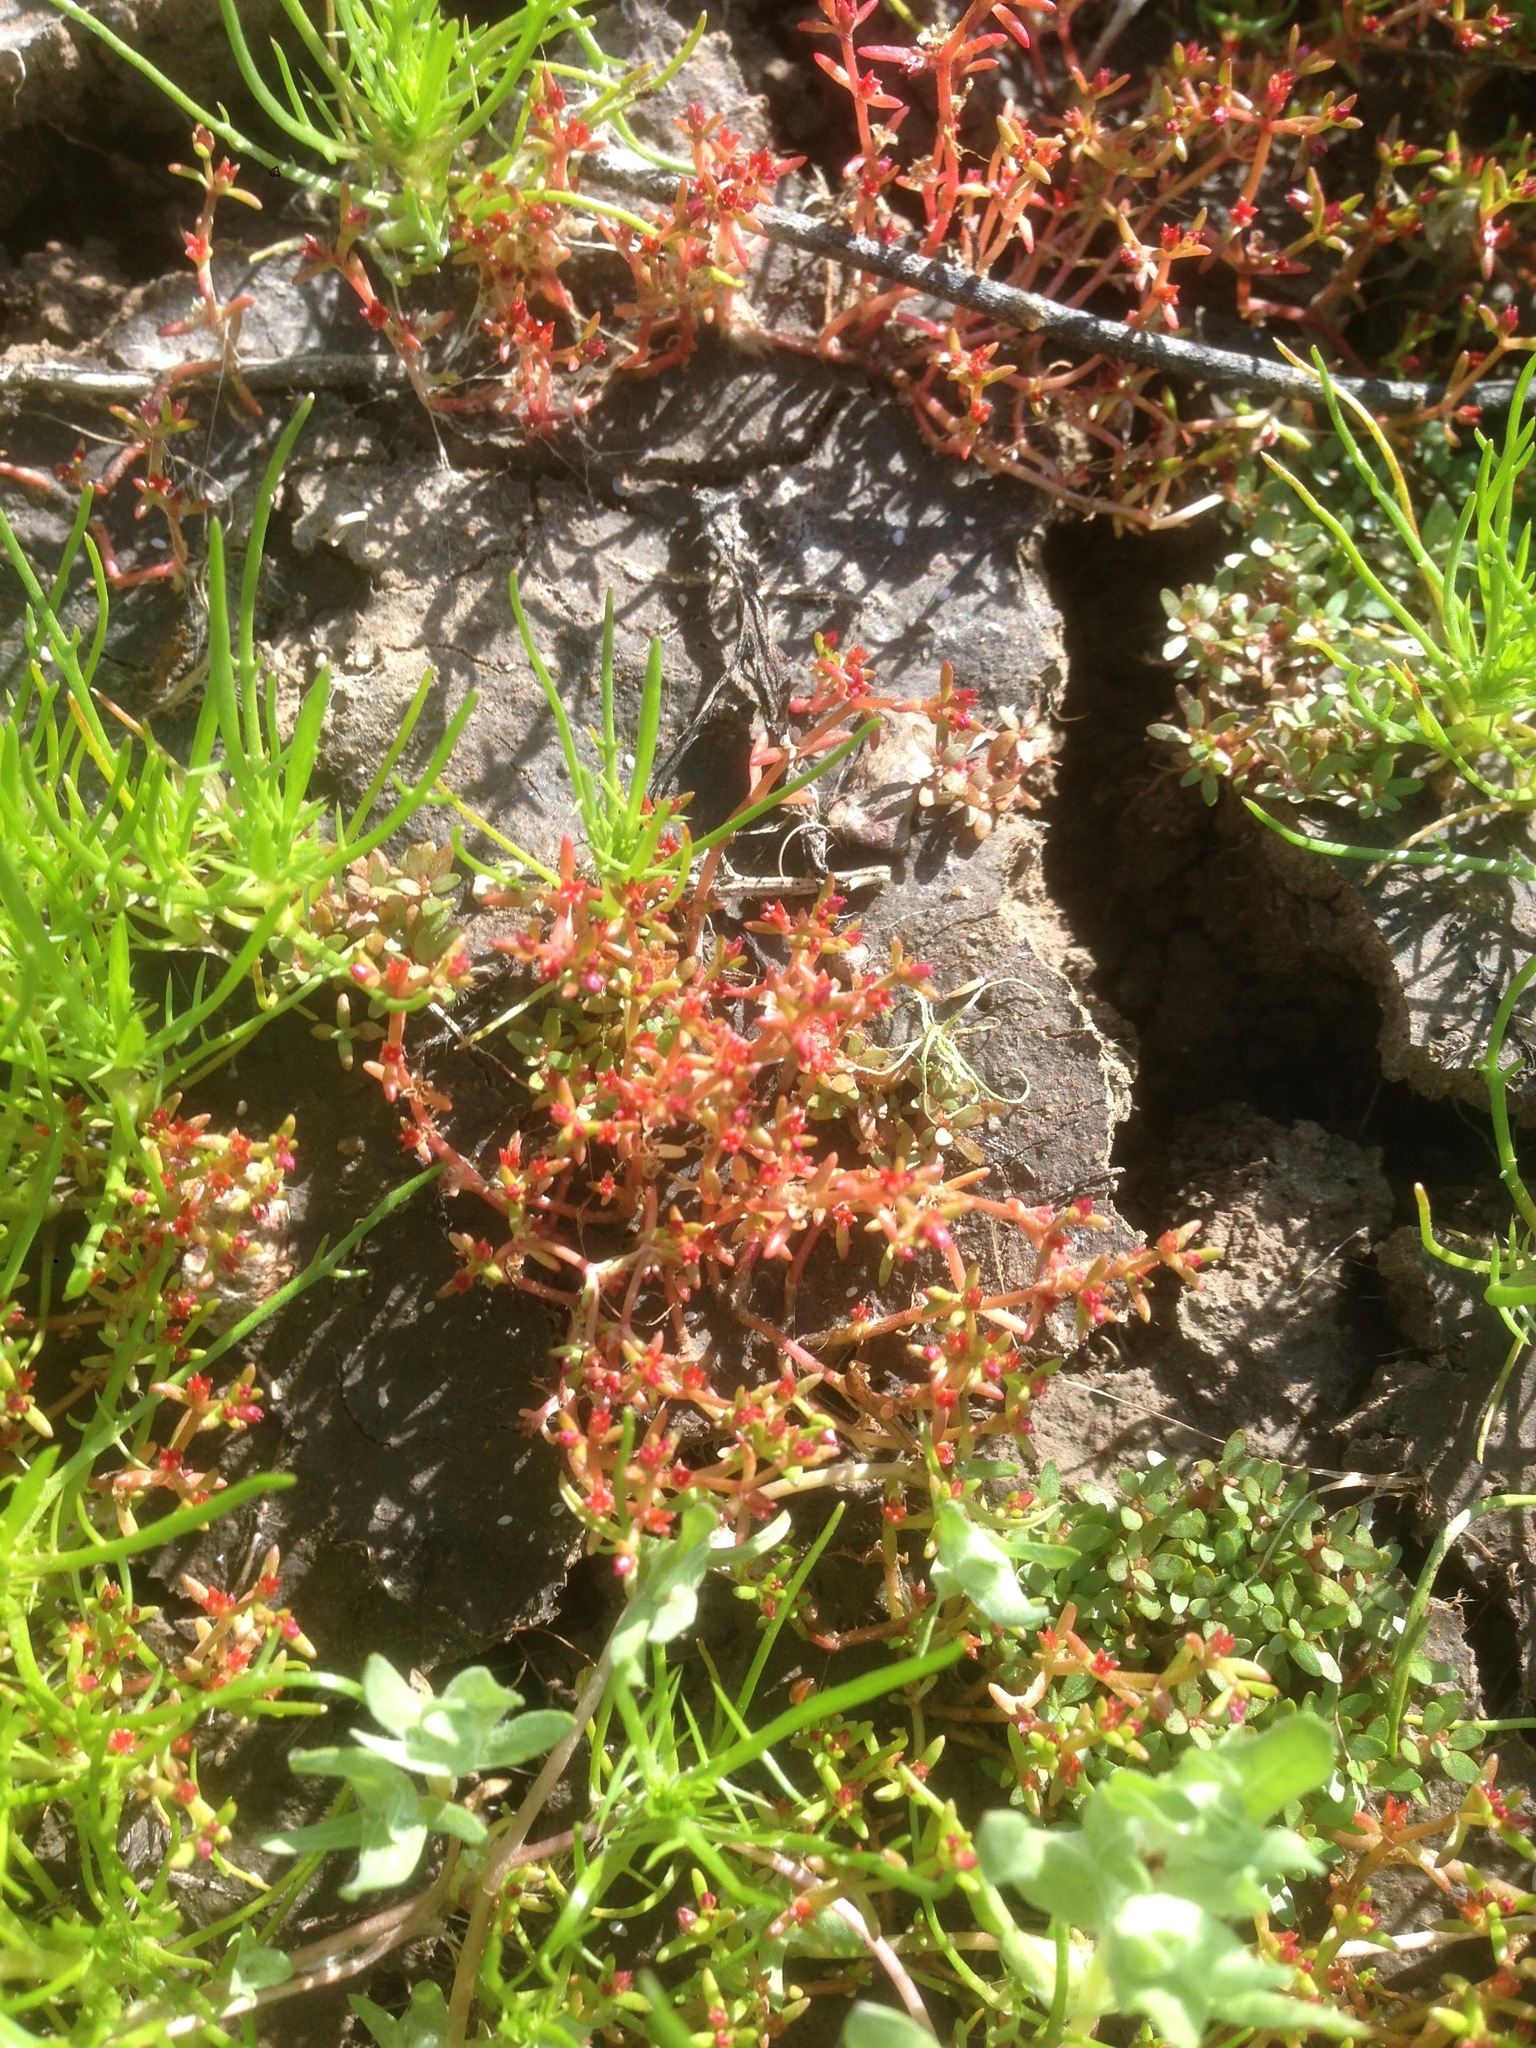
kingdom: Plantae
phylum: Tracheophyta
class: Magnoliopsida
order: Saxifragales
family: Crassulaceae
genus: Crassula
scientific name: Crassula aquatica
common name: Pigmyweed
